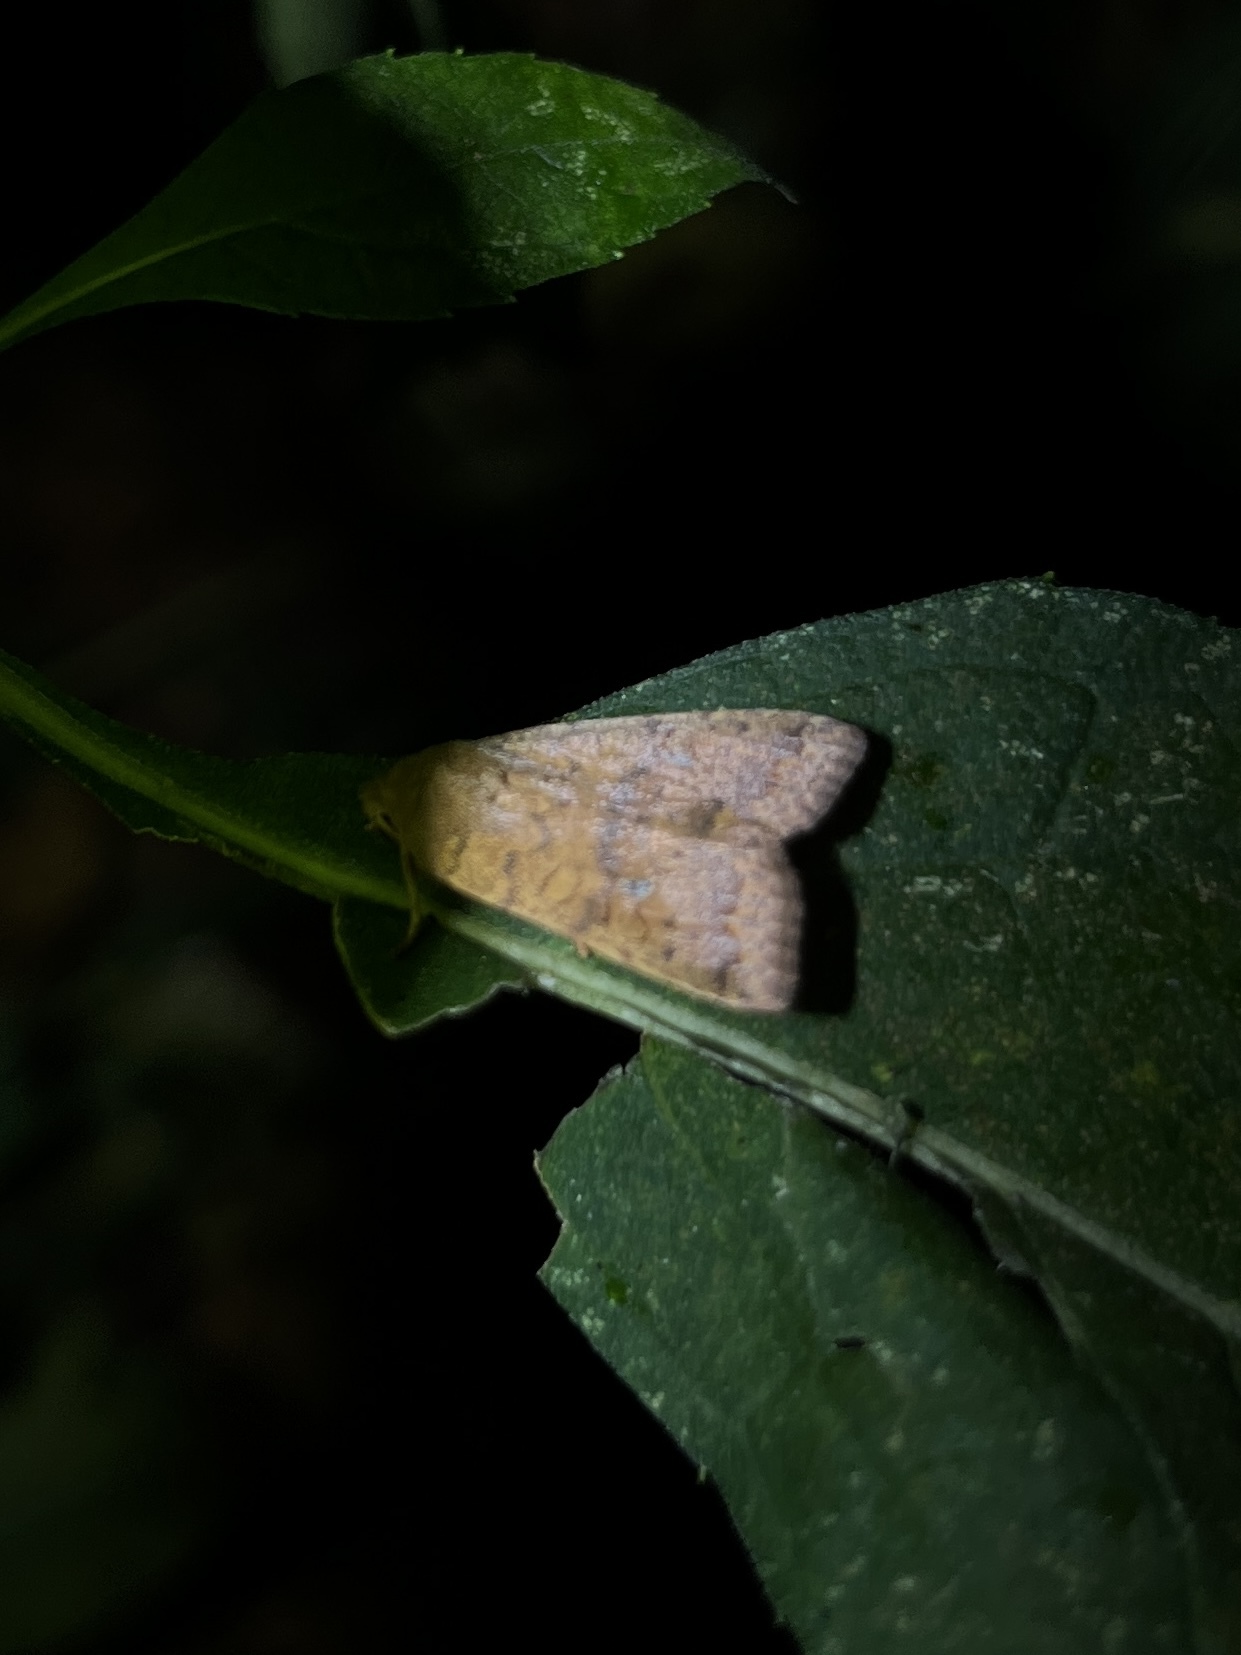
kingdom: Animalia
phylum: Arthropoda
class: Insecta
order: Lepidoptera
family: Noctuidae
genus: Agrochola
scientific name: Agrochola bicolorago
